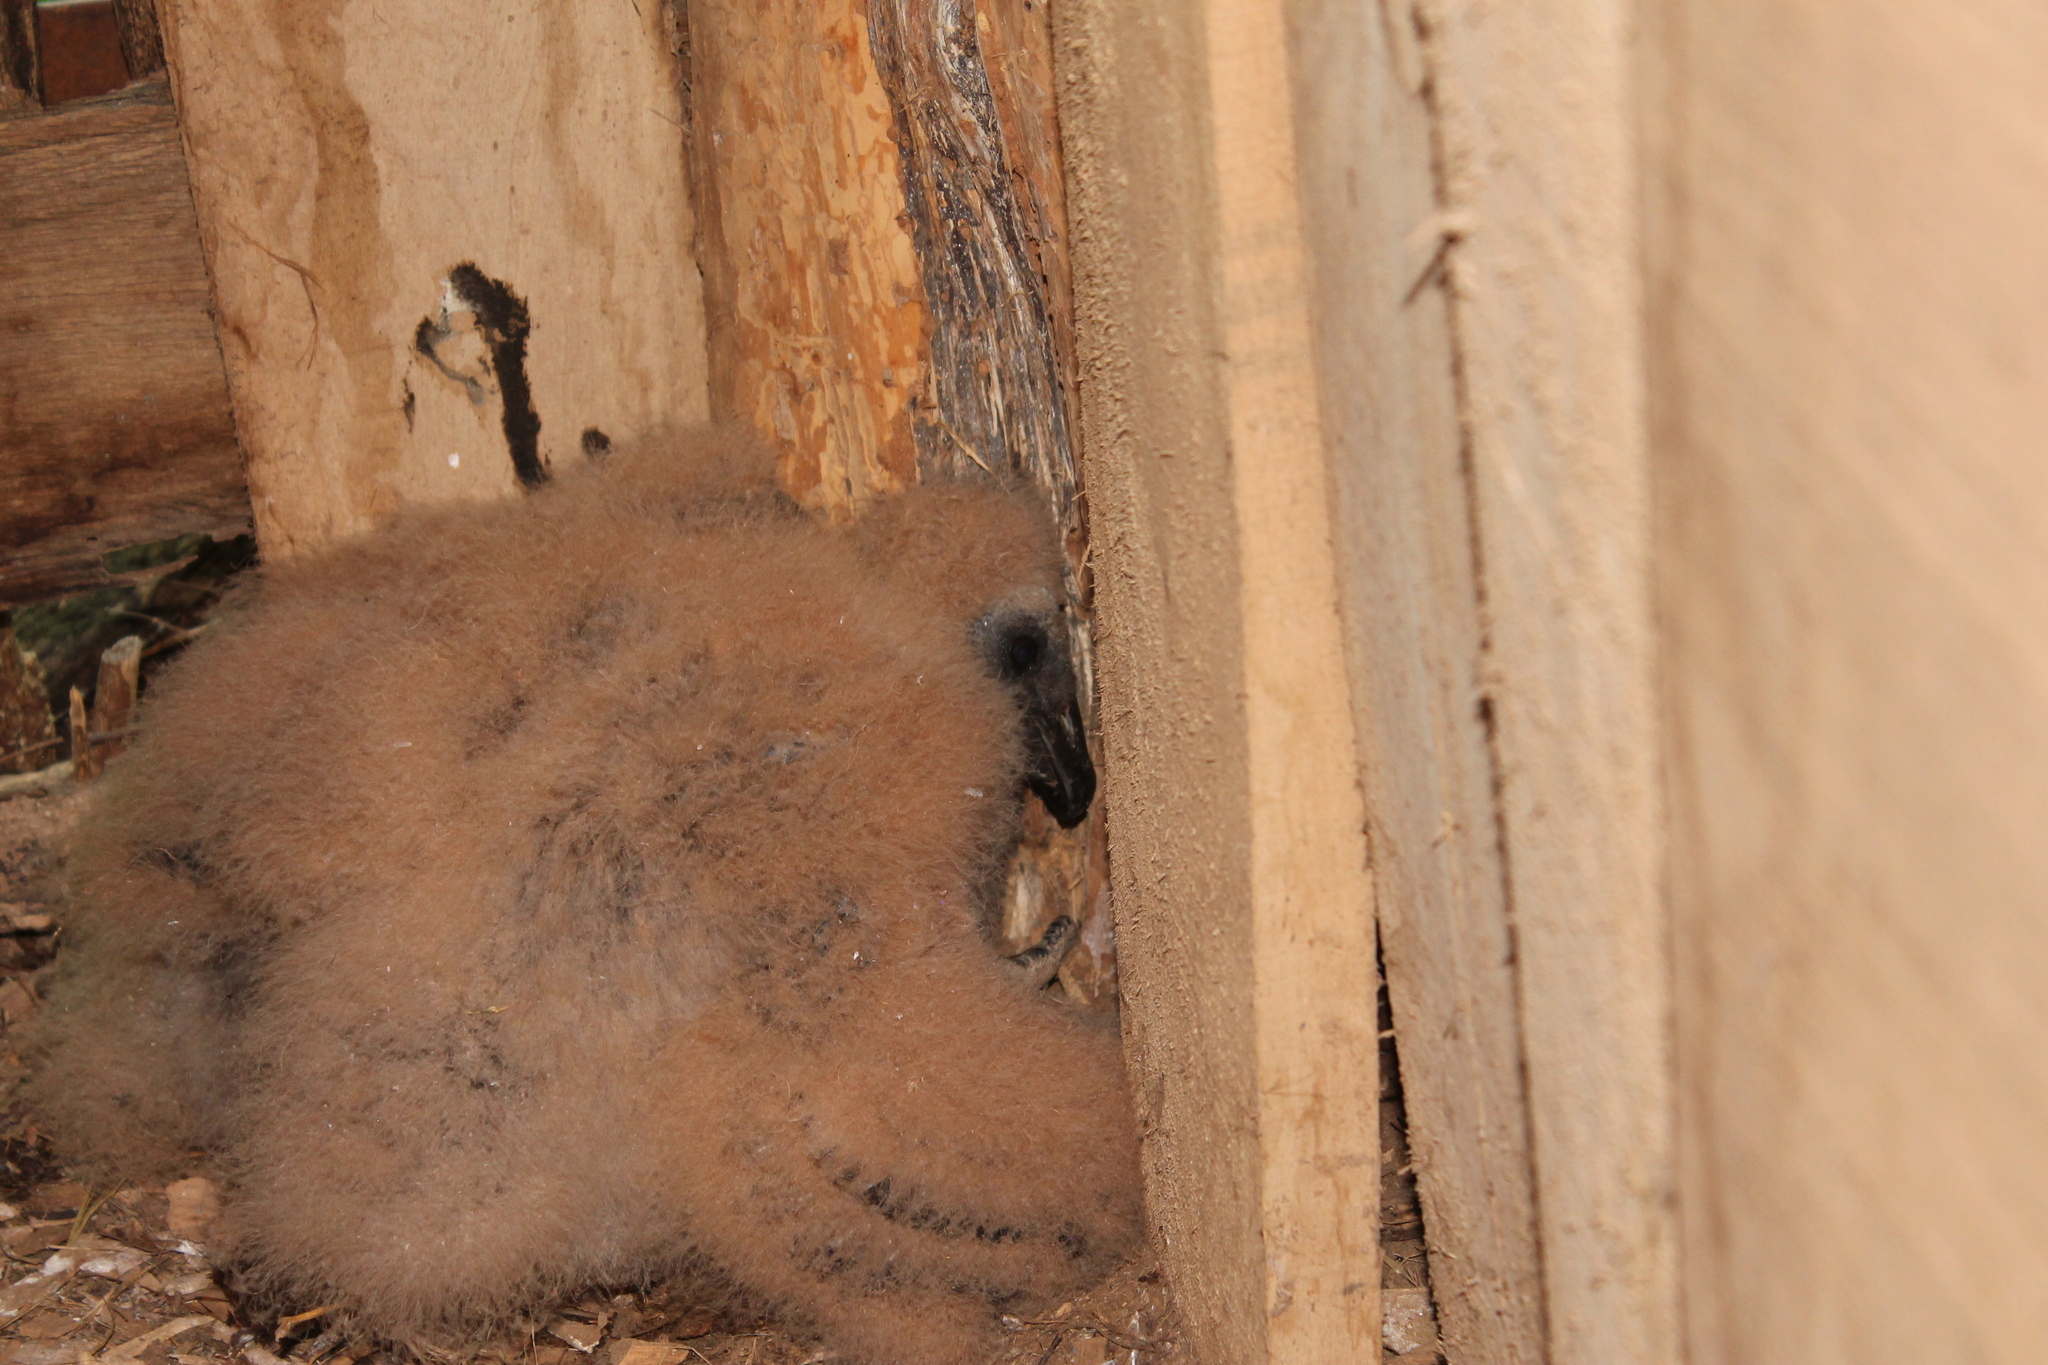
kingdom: Animalia
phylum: Chordata
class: Aves
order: Accipitriformes
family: Cathartidae
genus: Coragyps
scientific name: Coragyps atratus
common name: Black vulture
